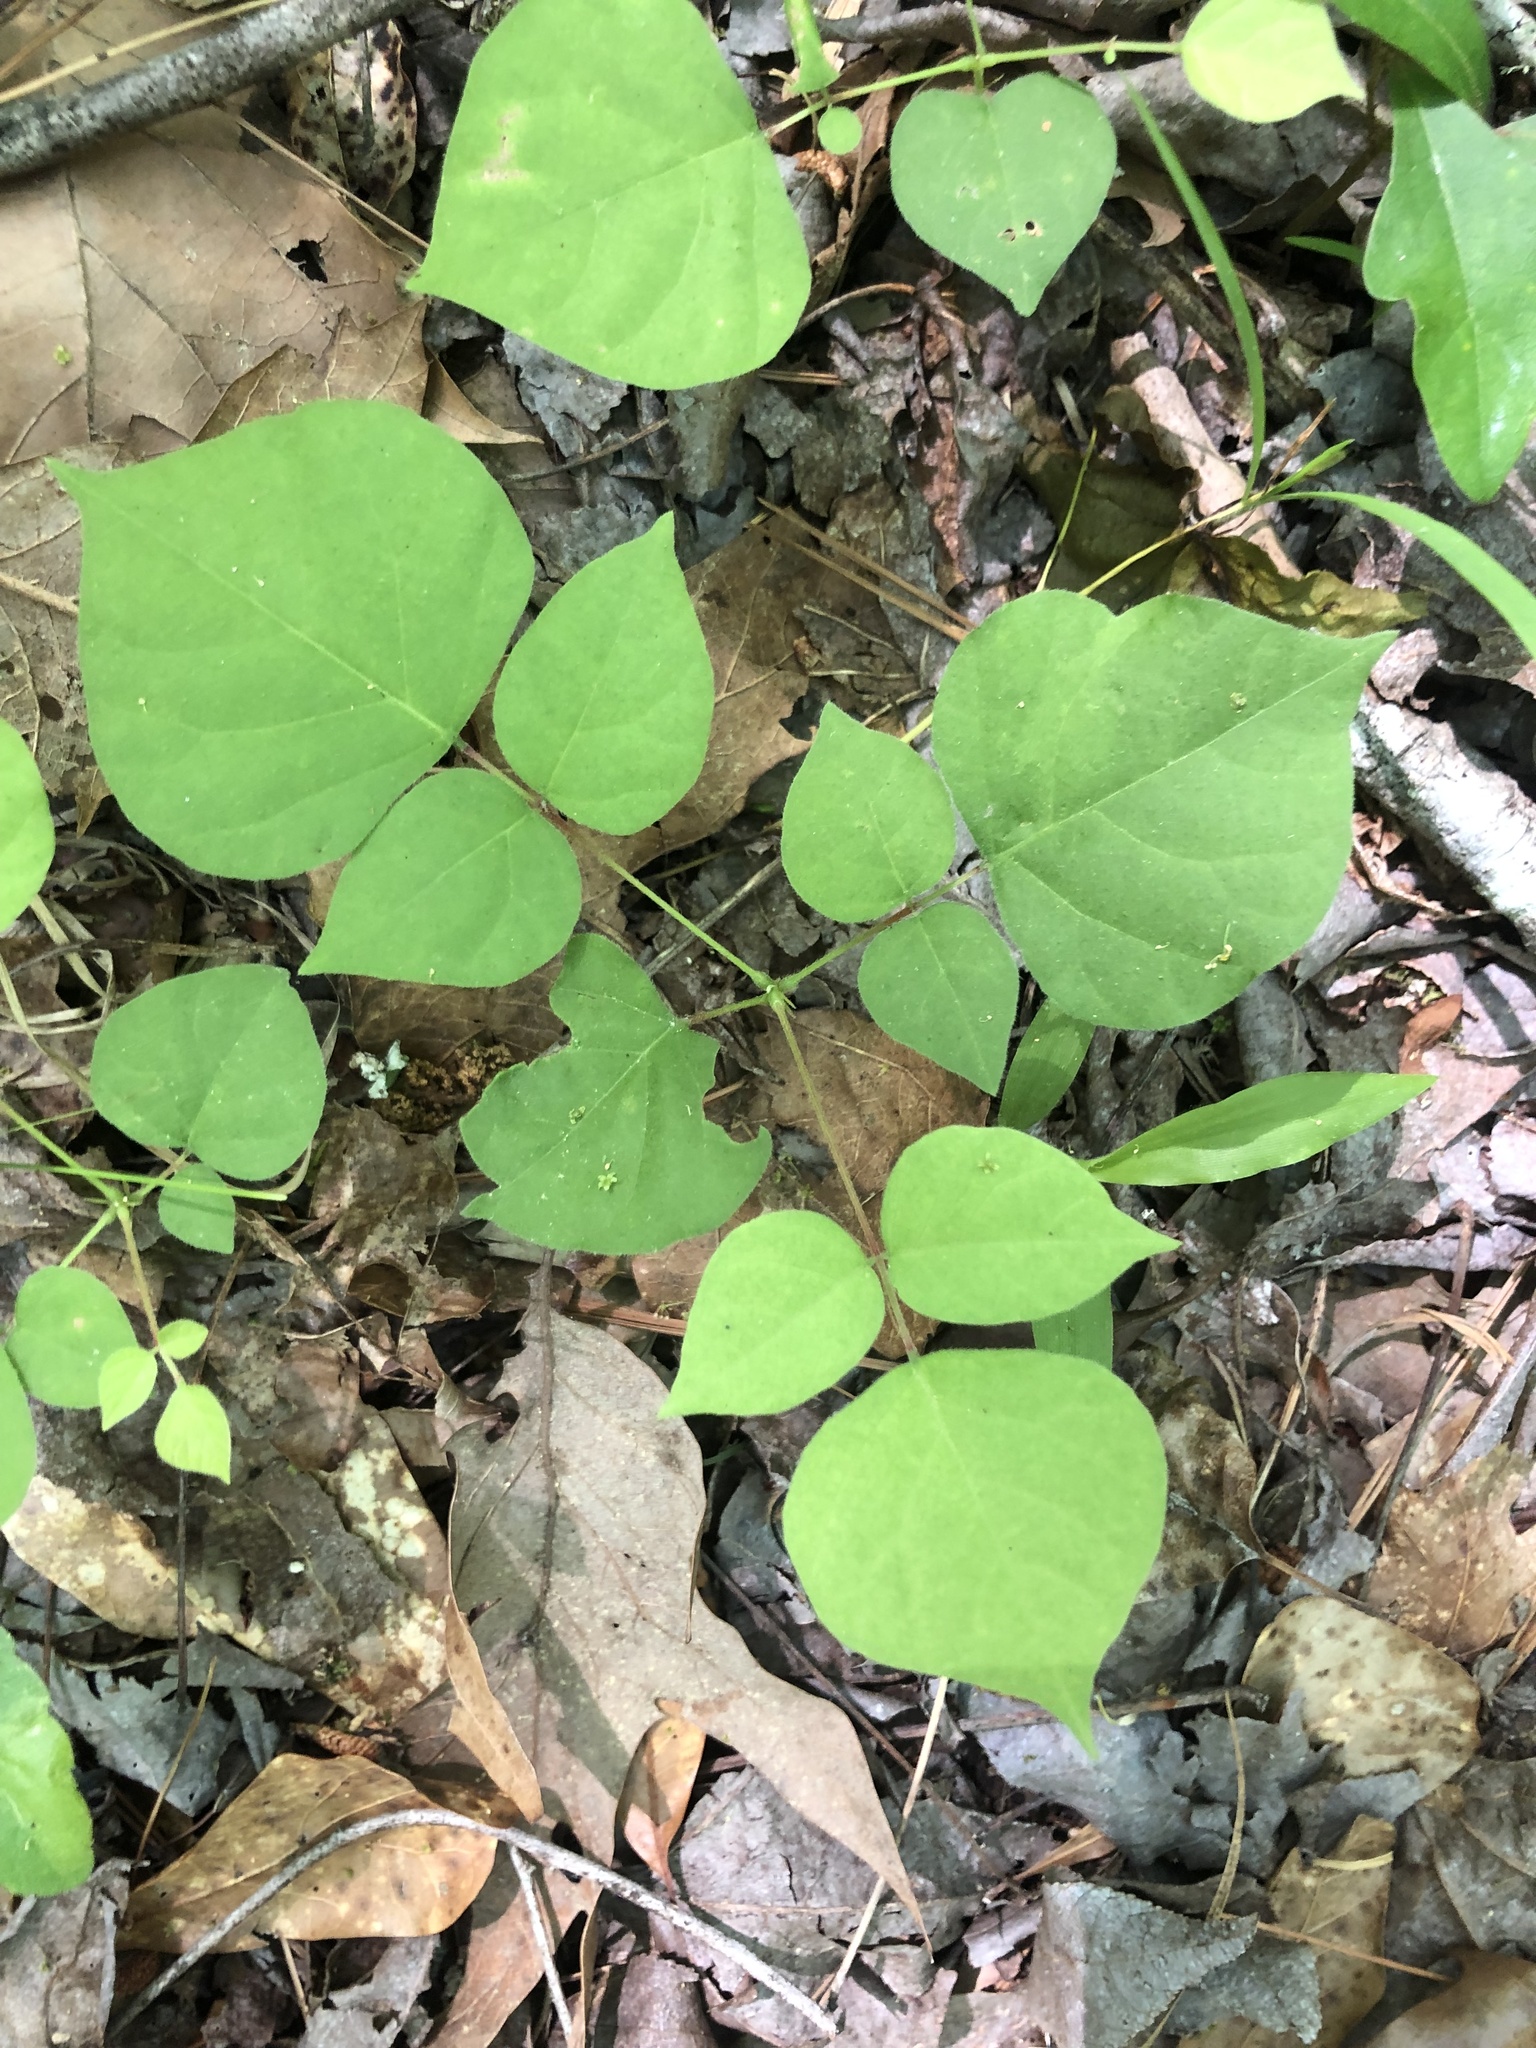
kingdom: Plantae
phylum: Tracheophyta
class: Magnoliopsida
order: Fabales
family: Fabaceae
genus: Hylodesmum
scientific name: Hylodesmum glutinosum
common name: Clustered-leaved tick-trefoil
